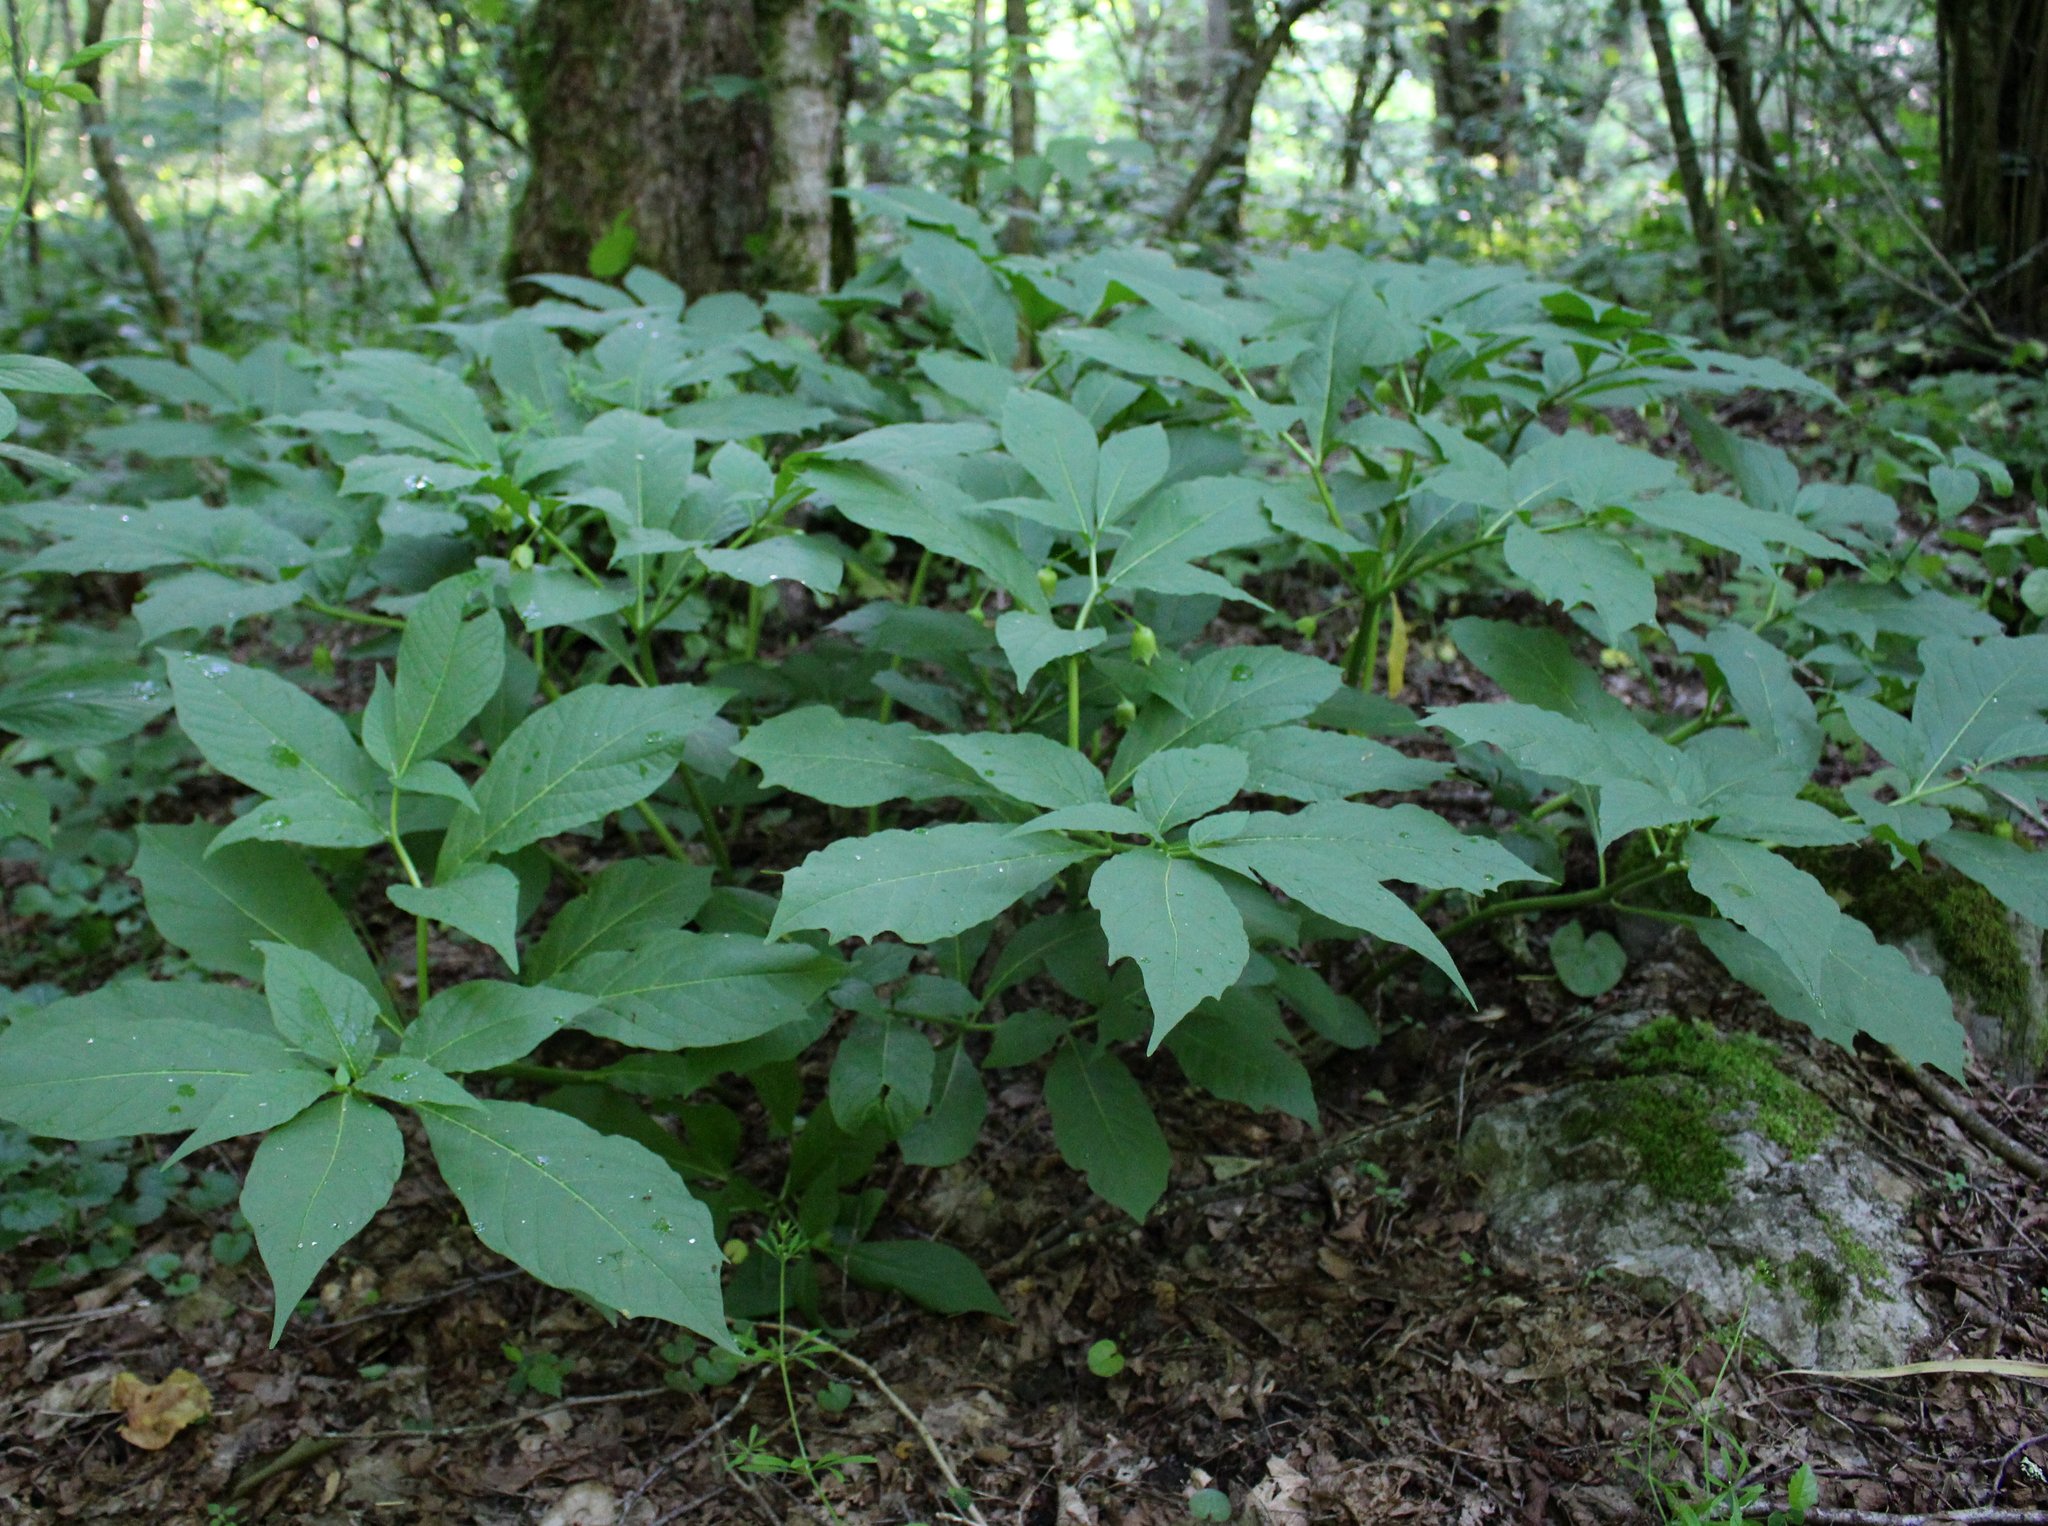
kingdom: Plantae
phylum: Tracheophyta
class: Magnoliopsida
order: Solanales
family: Solanaceae
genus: Scopolia
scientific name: Scopolia carniolica
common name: Scopolia
